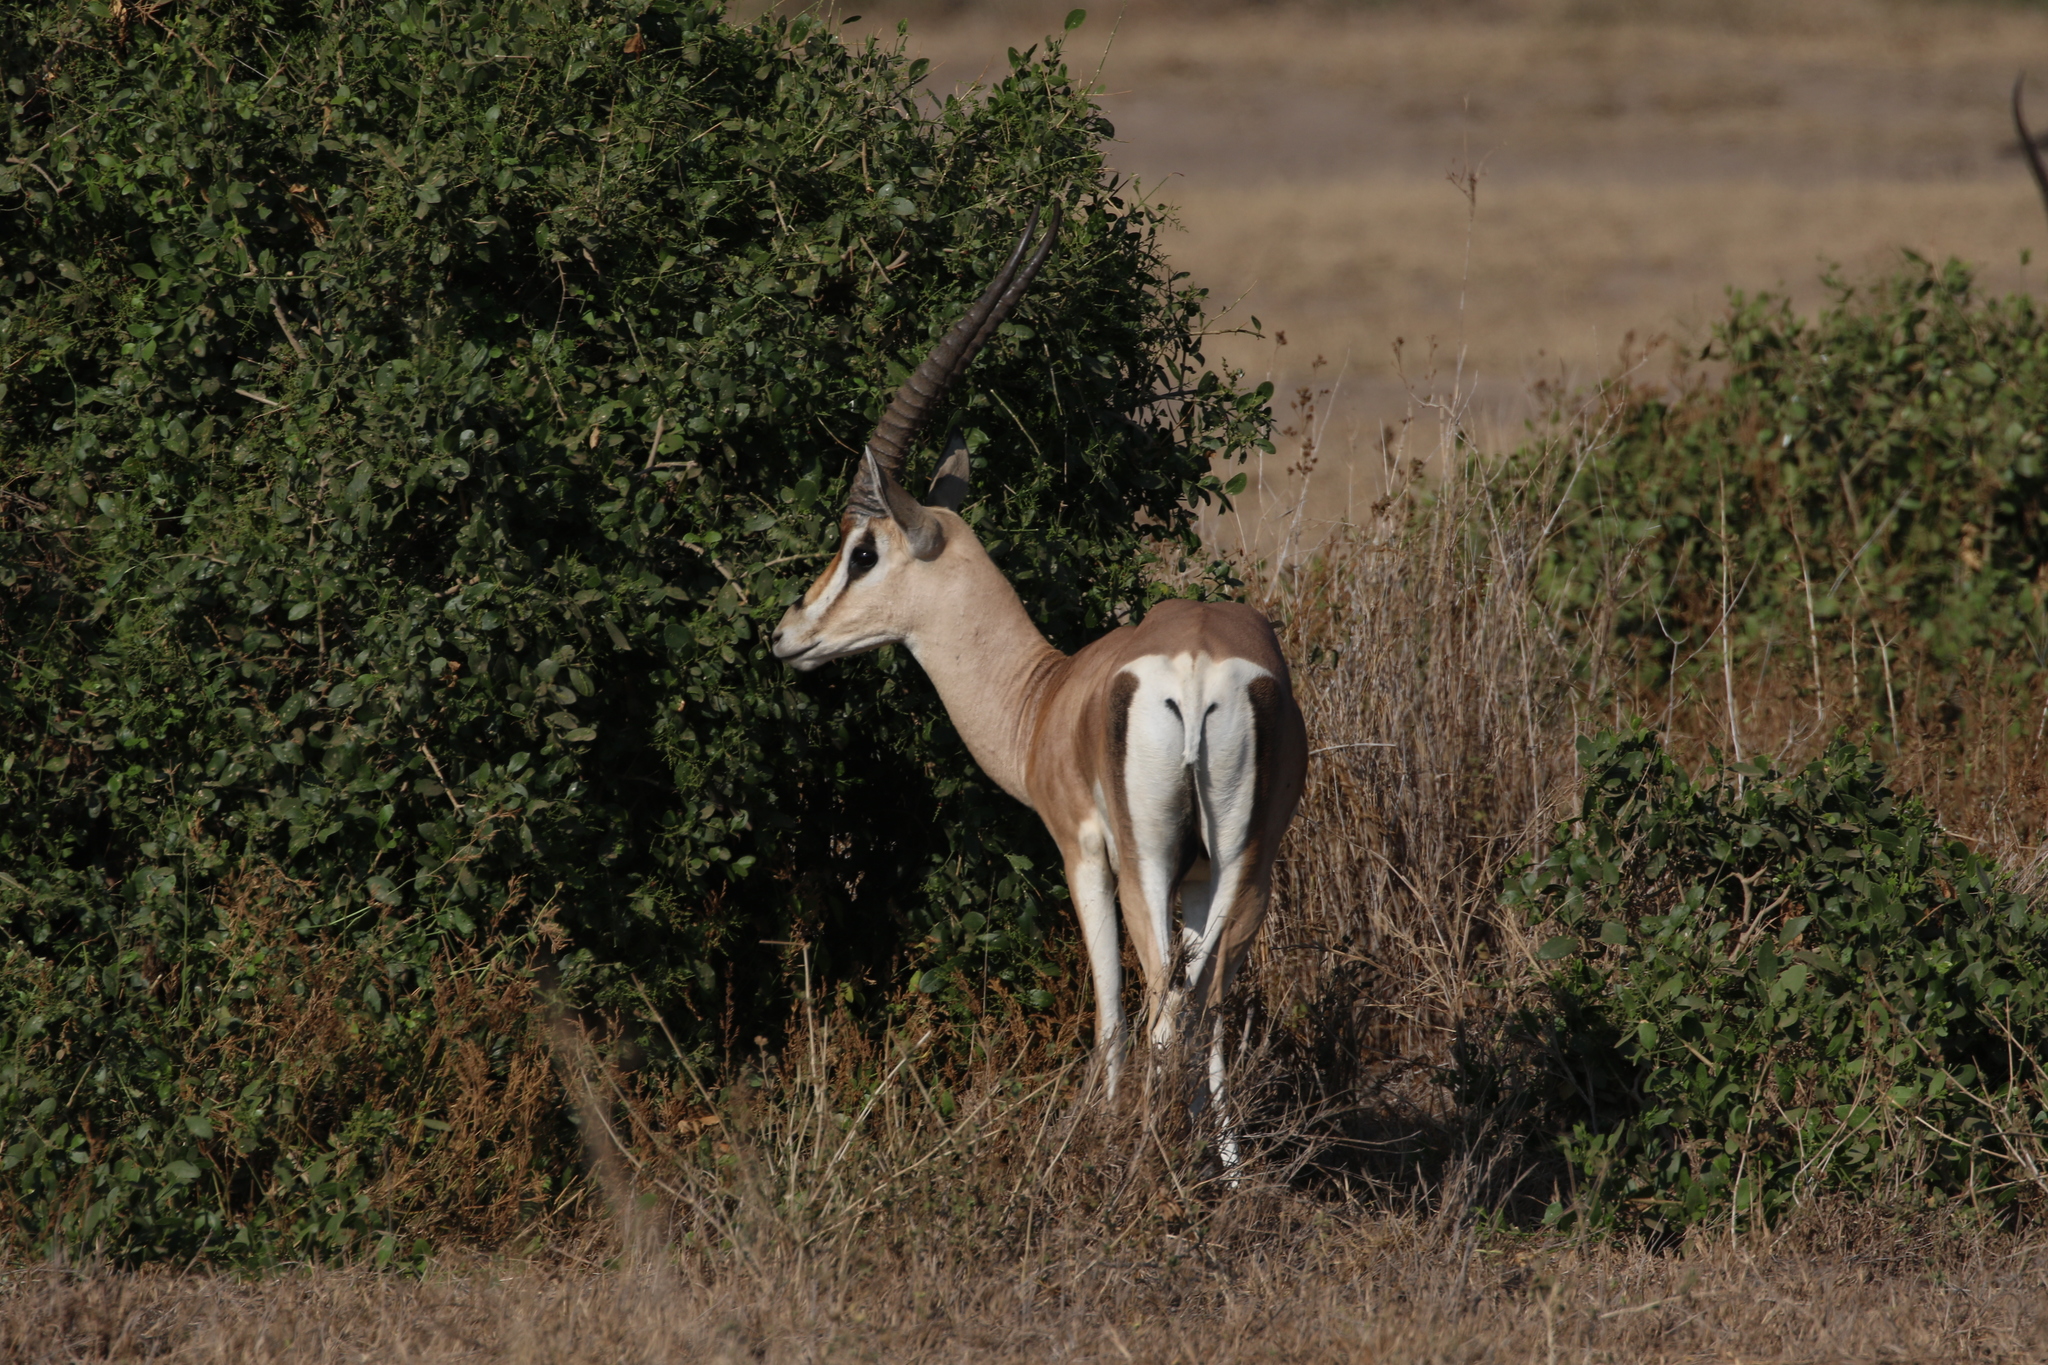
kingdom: Animalia
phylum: Chordata
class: Mammalia
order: Artiodactyla
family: Bovidae
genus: Nanger
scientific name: Nanger granti
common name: Grant's gazelle
